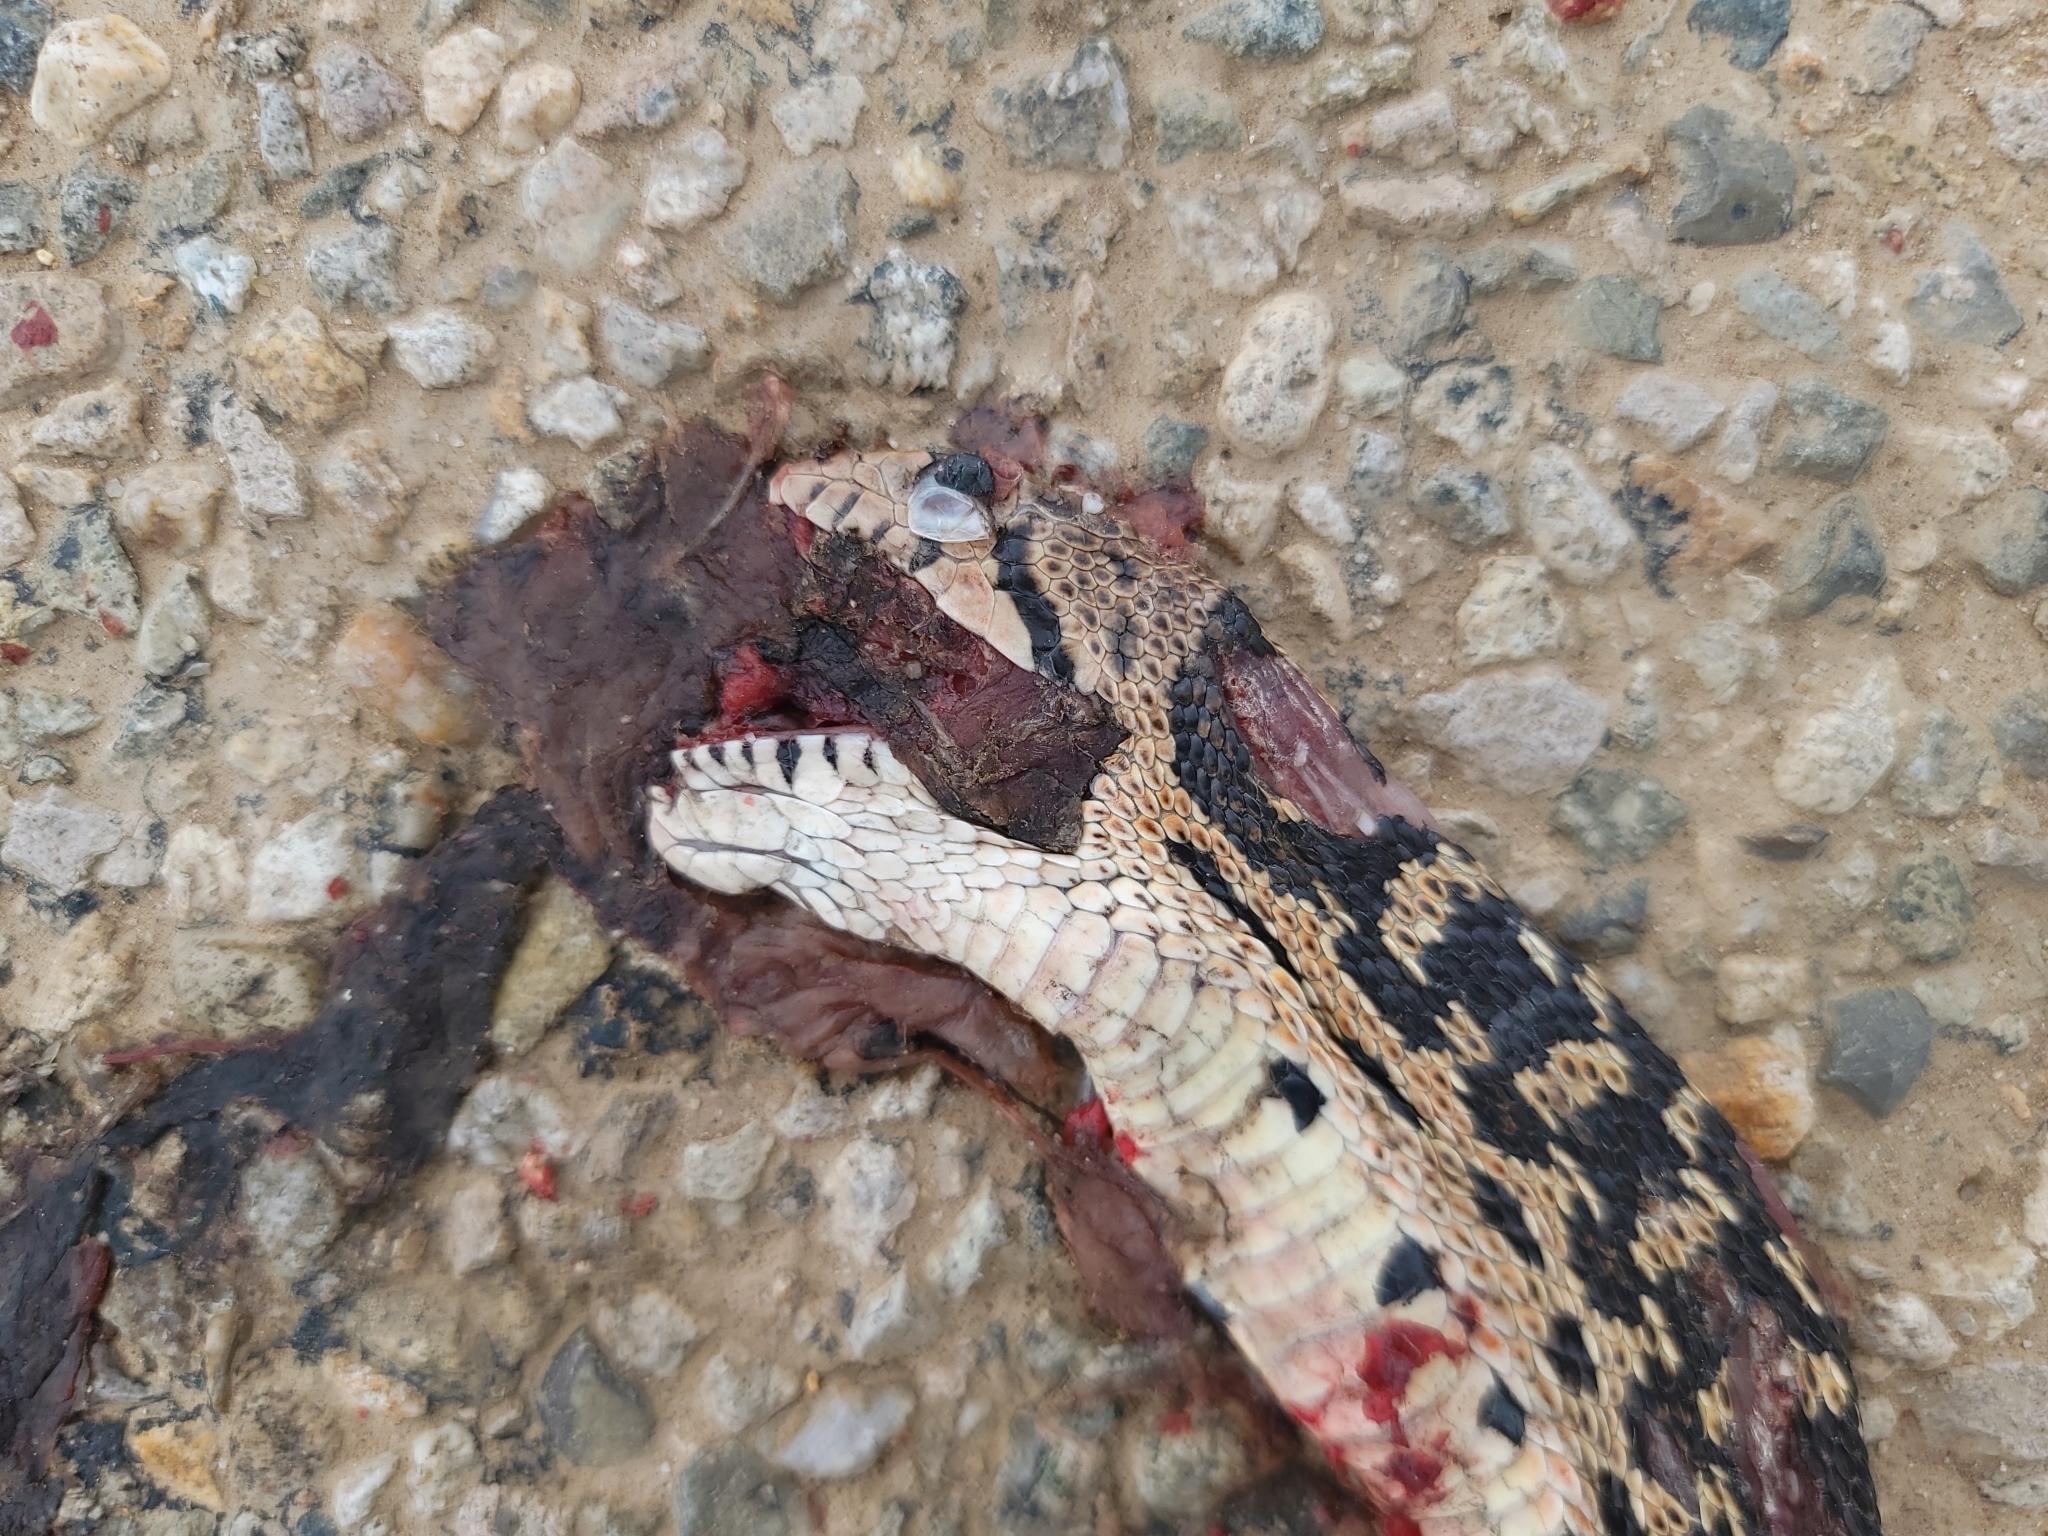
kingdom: Animalia
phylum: Chordata
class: Squamata
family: Colubridae
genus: Pituophis
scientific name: Pituophis catenifer
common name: Gopher snake
